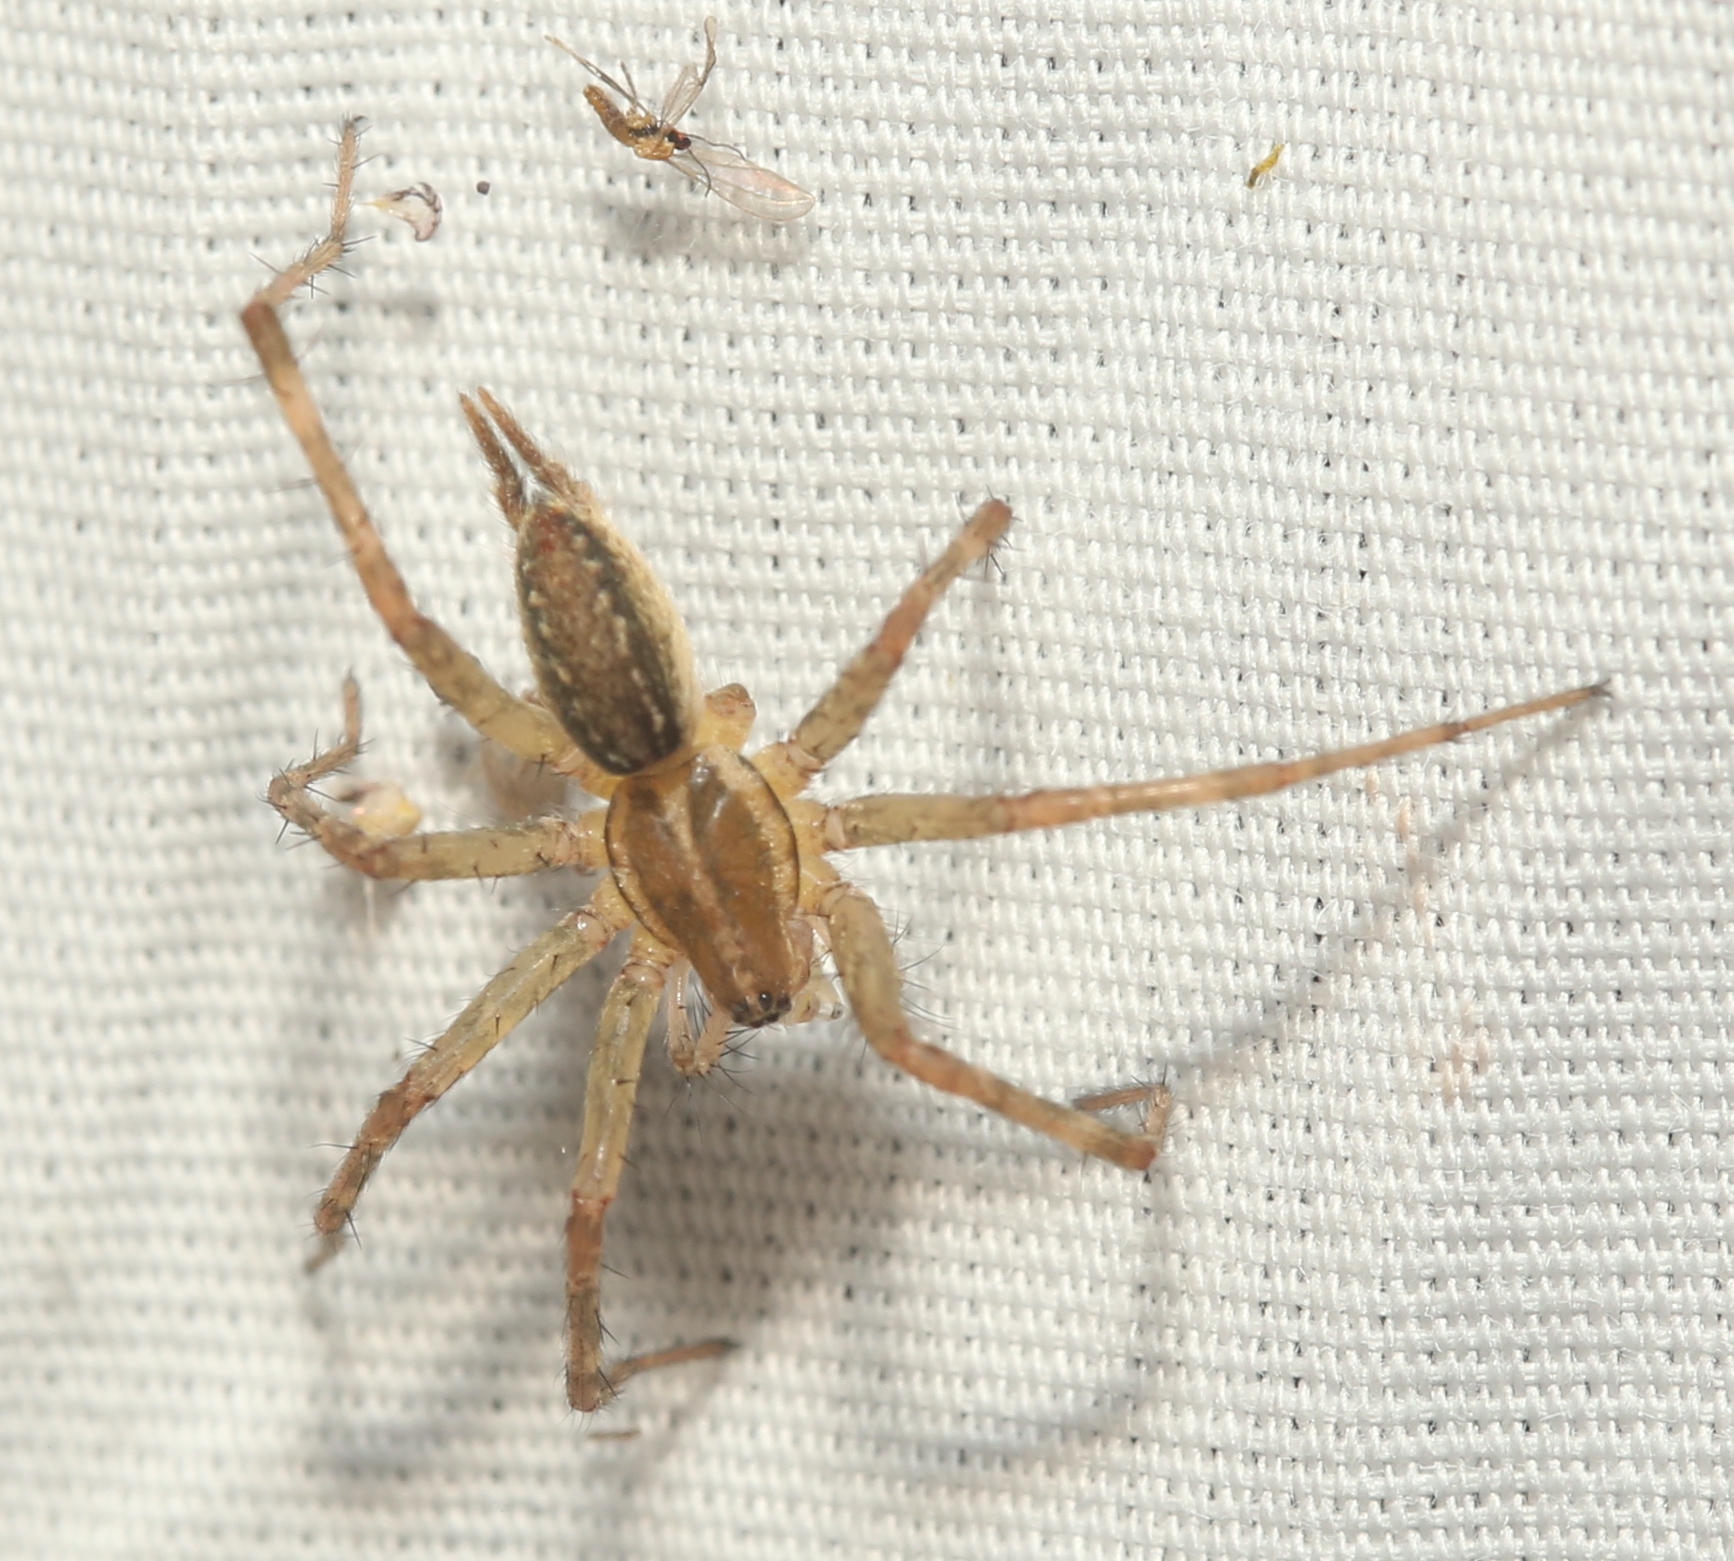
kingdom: Animalia
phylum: Arthropoda
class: Arachnida
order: Araneae
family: Agelenidae
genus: Agelenopsis
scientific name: Agelenopsis
